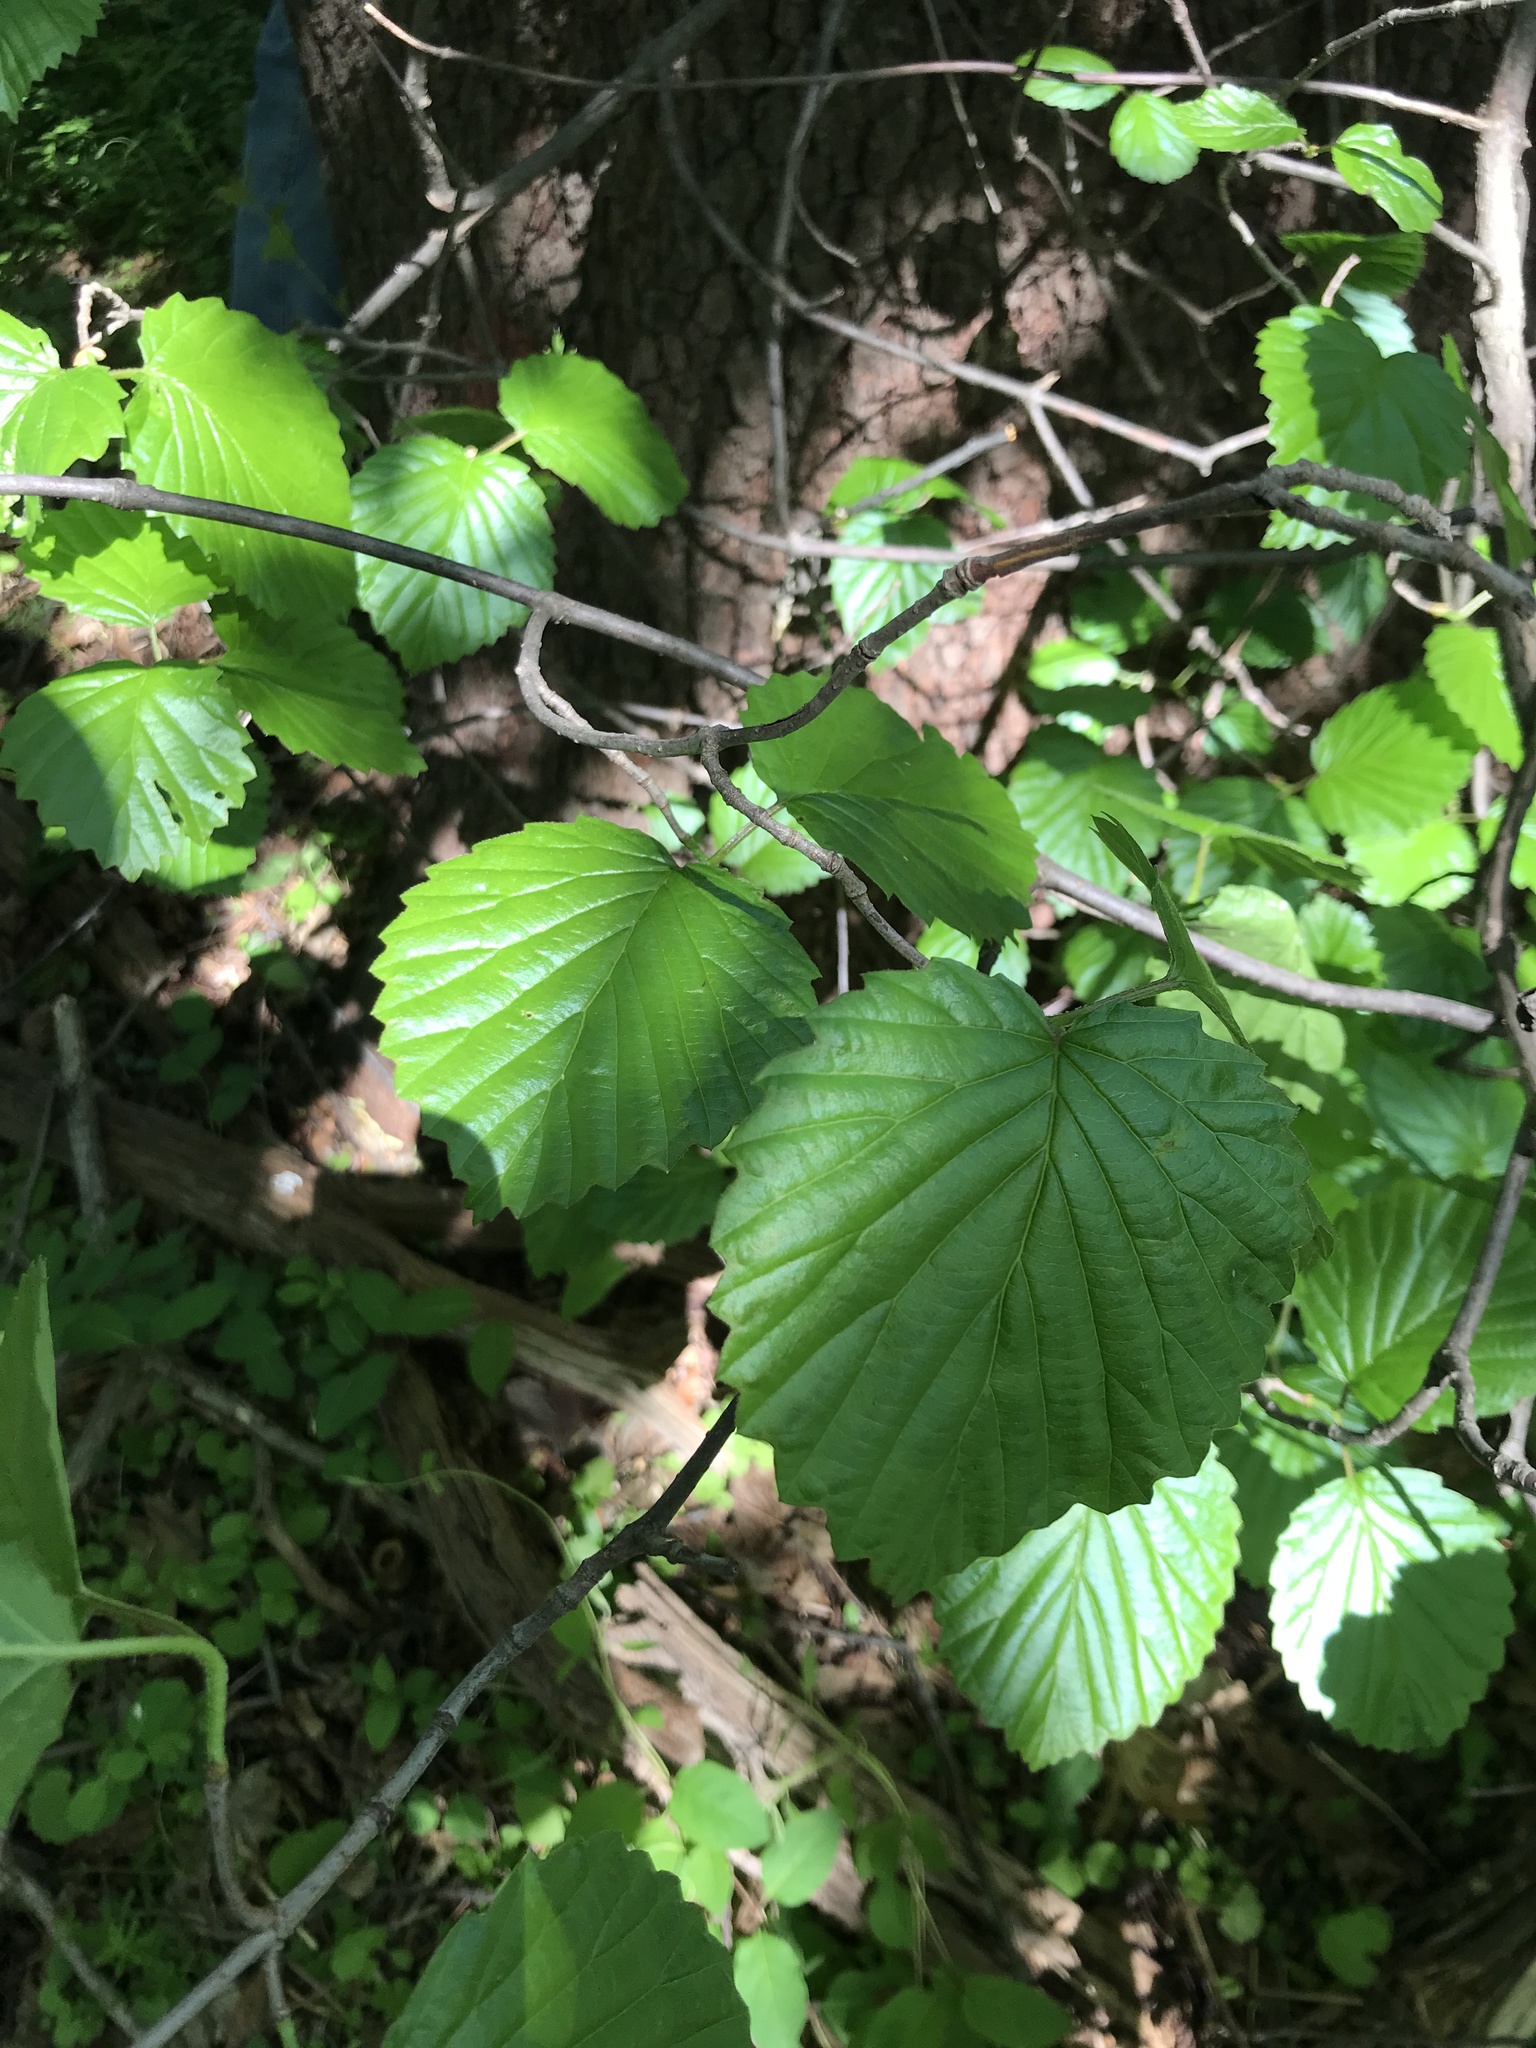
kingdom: Plantae
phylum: Tracheophyta
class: Magnoliopsida
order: Dipsacales
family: Viburnaceae
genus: Viburnum
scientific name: Viburnum dentatum
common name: Arrow-wood
